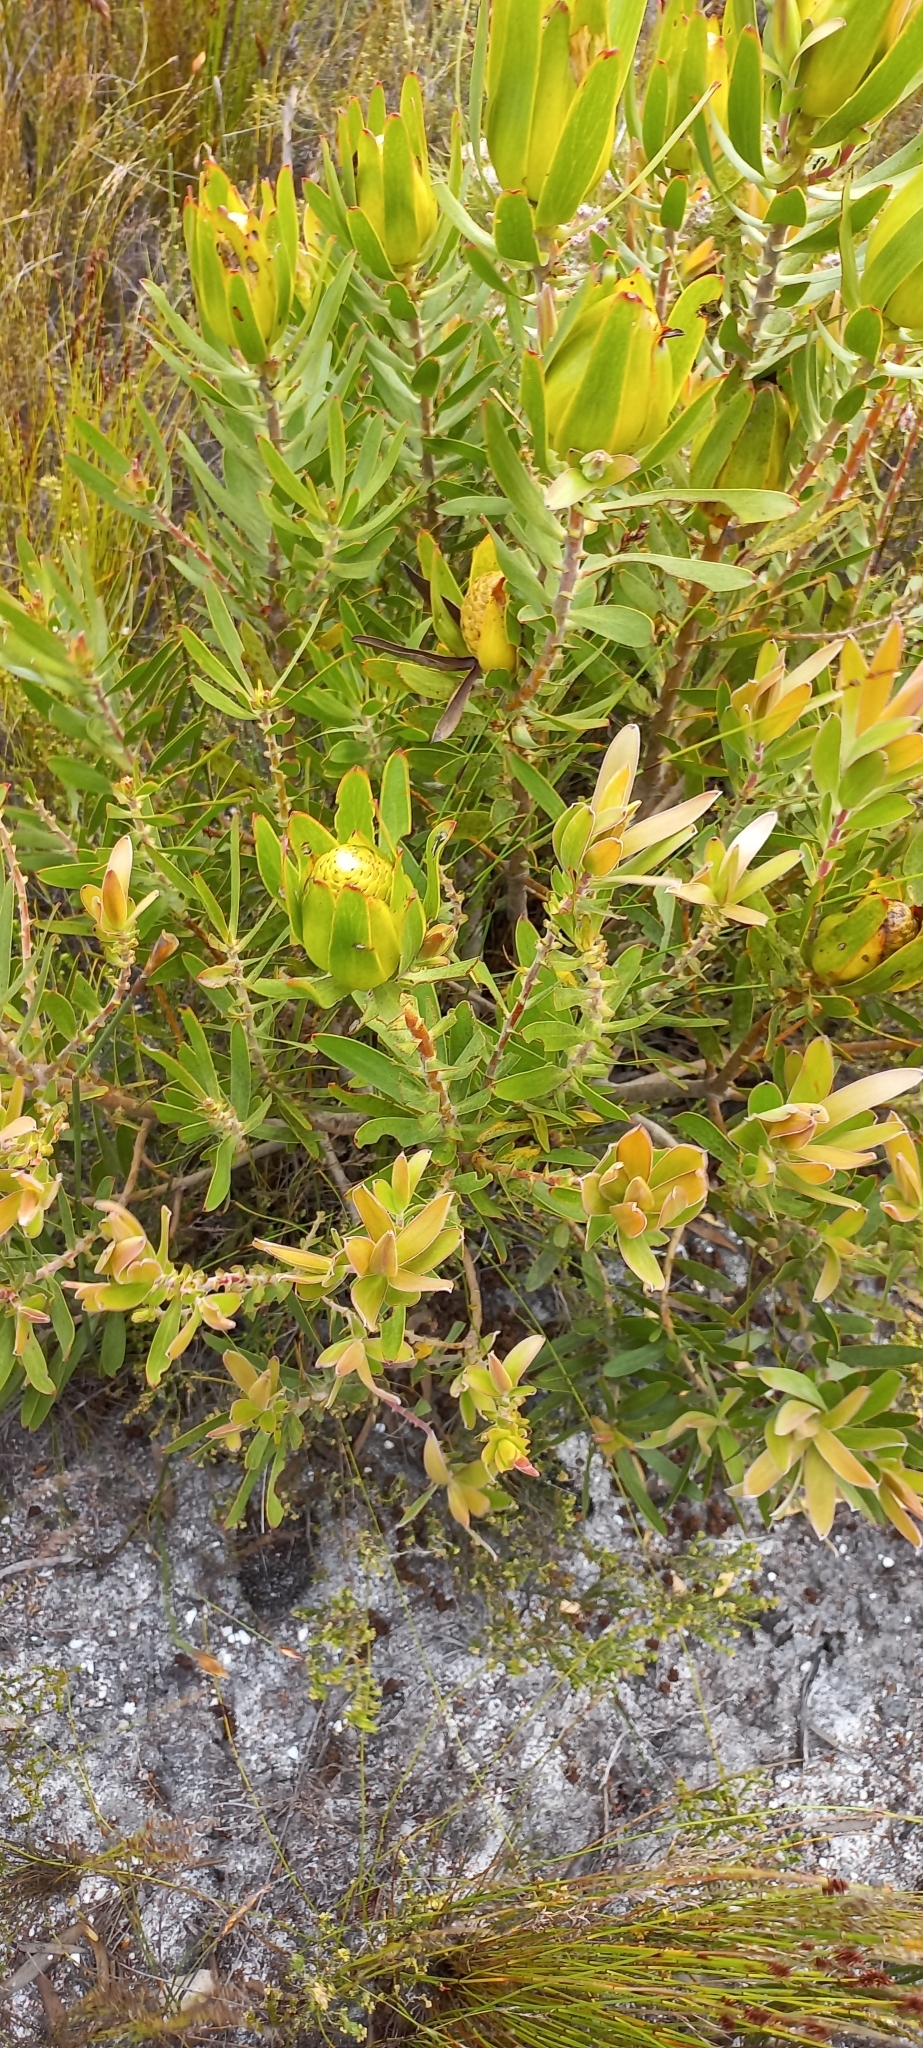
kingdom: Plantae
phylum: Tracheophyta
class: Magnoliopsida
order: Proteales
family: Proteaceae
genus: Leucadendron
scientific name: Leucadendron laureolum
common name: Golden sunshinebush
